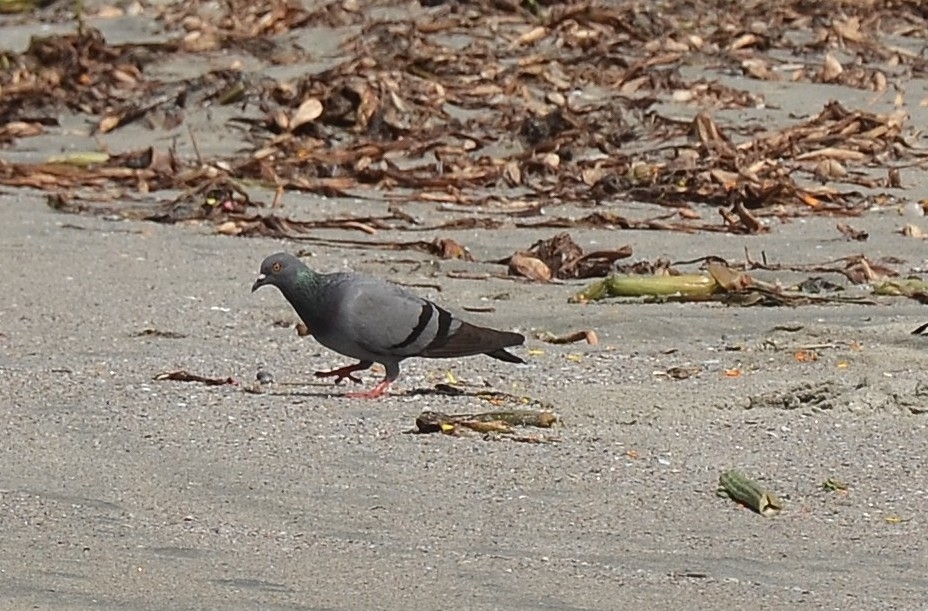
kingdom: Animalia
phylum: Chordata
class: Aves
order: Columbiformes
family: Columbidae
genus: Columba
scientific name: Columba livia
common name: Rock pigeon
